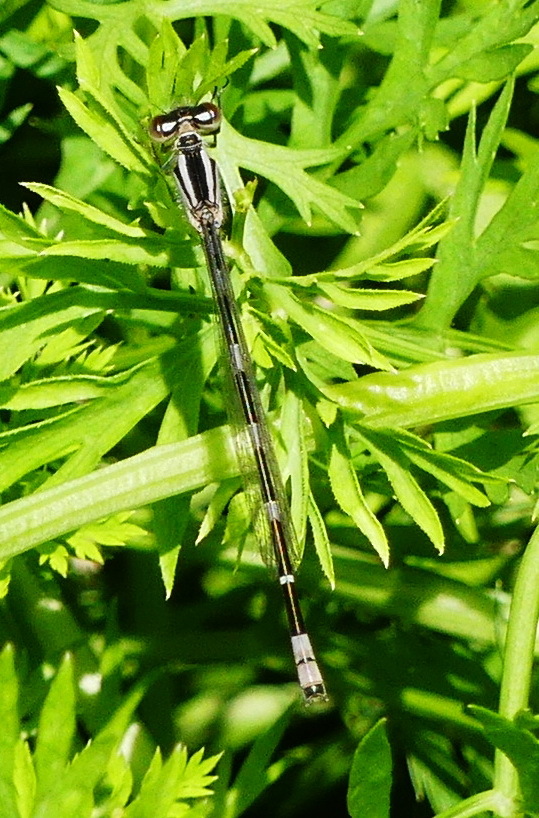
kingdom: Animalia
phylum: Arthropoda
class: Insecta
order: Odonata
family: Coenagrionidae
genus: Enallagma
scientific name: Enallagma carunculatum
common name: Tule bluet
